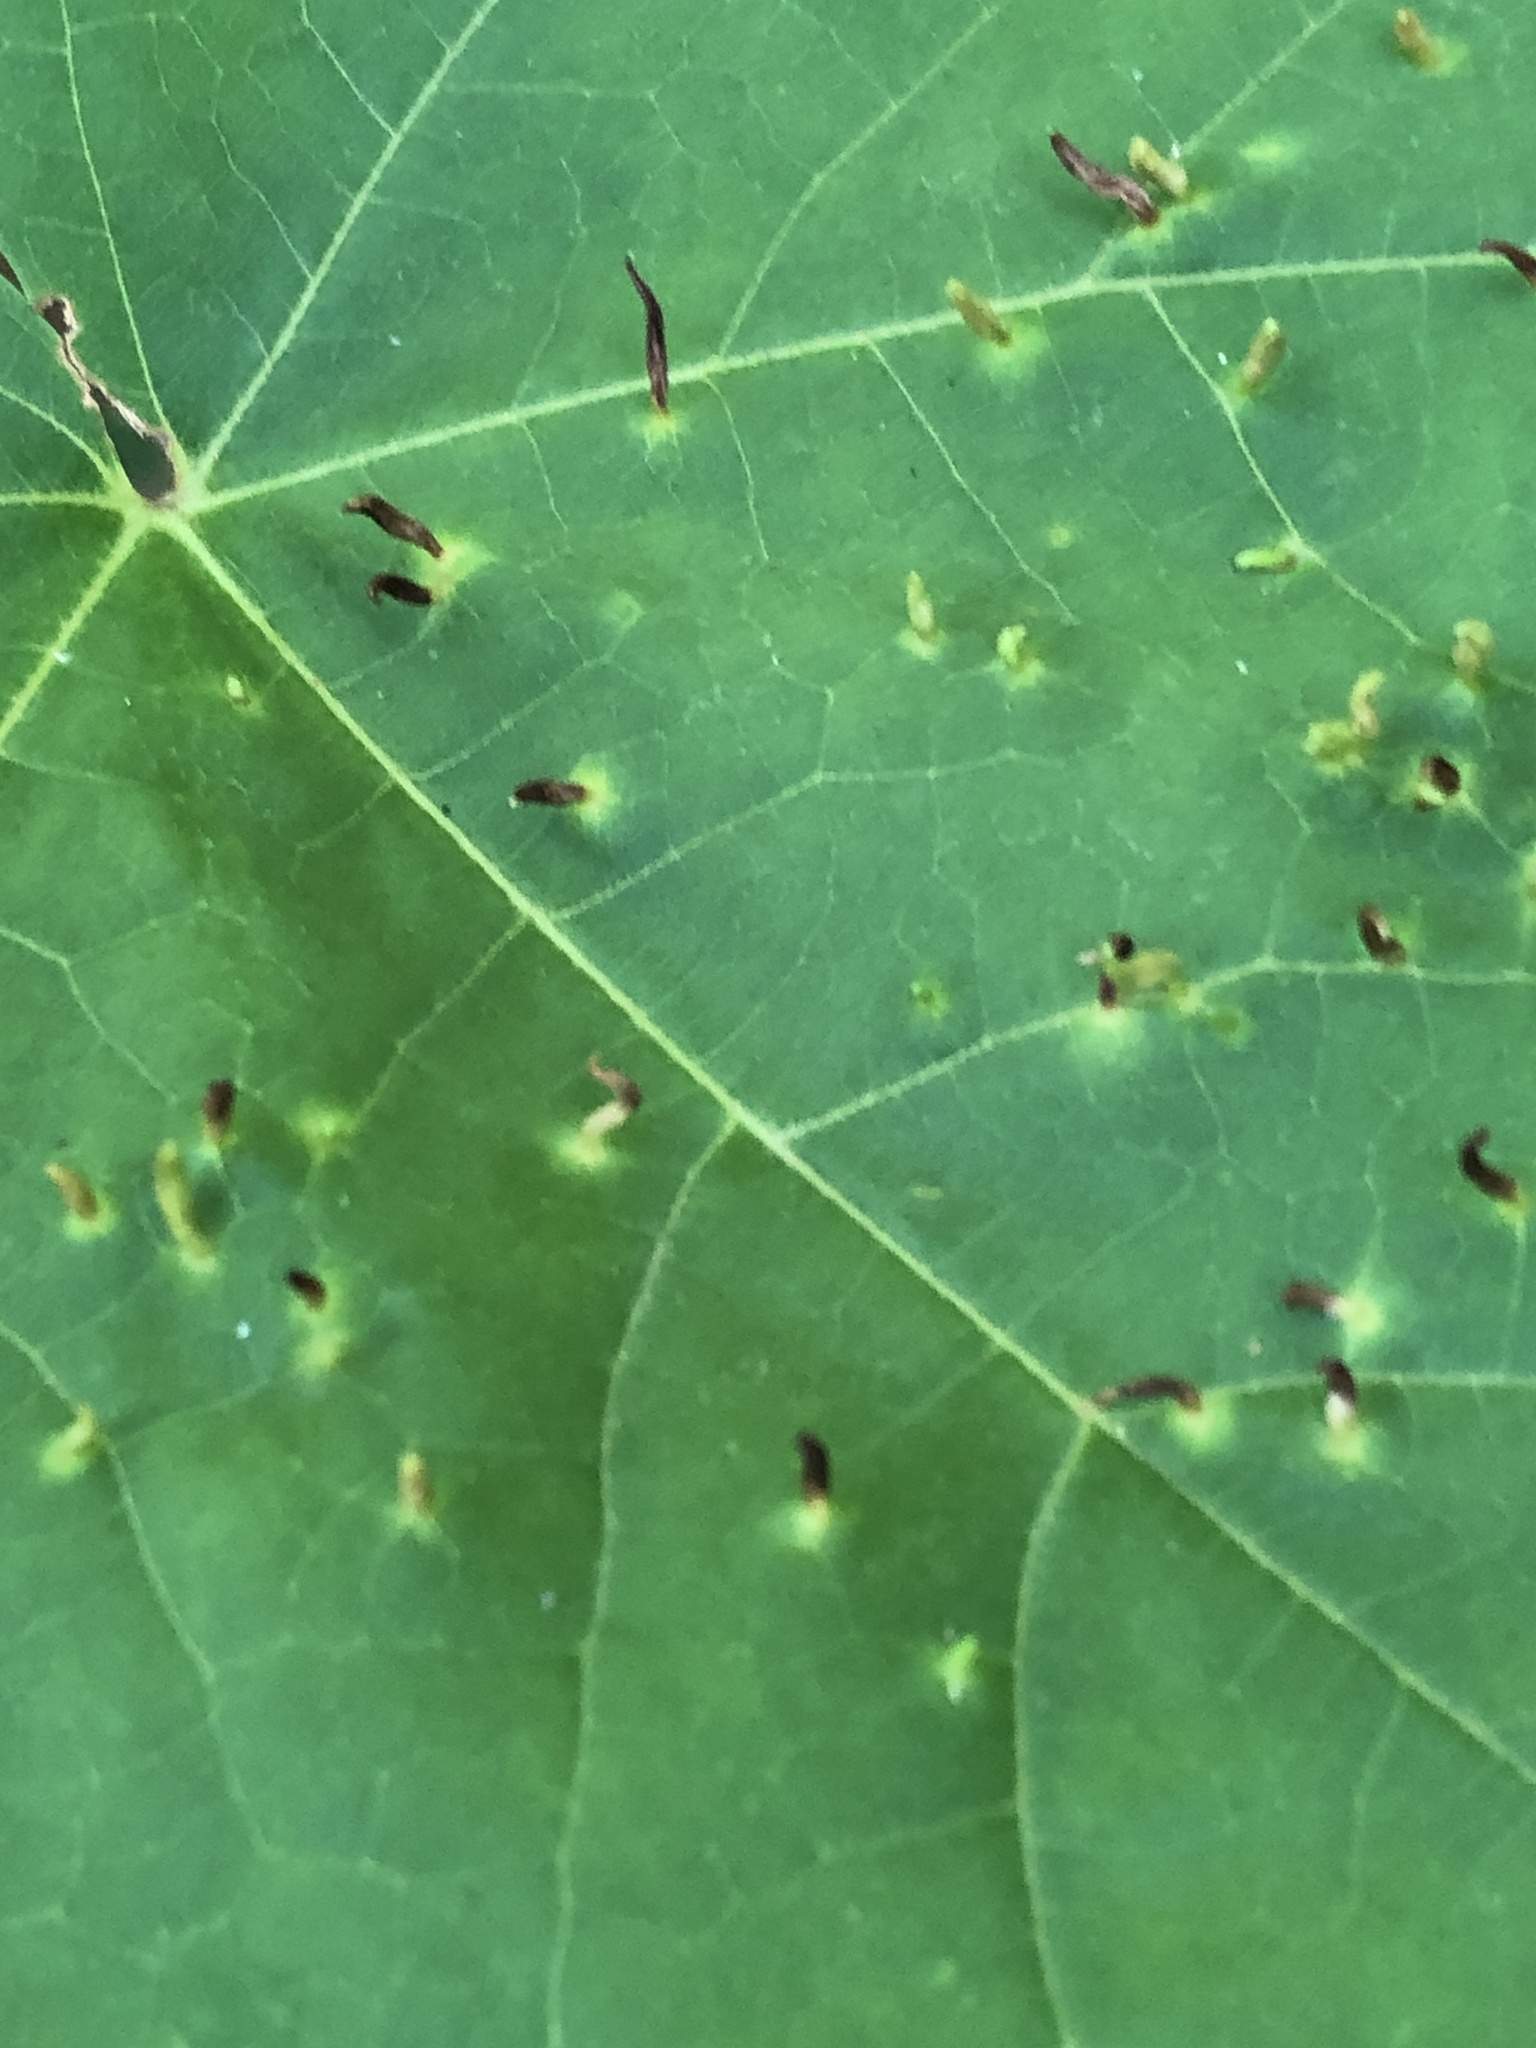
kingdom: Animalia
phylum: Arthropoda
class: Arachnida
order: Trombidiformes
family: Eriophyidae
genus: Vasates
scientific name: Vasates aceriscrumena
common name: Maple spindle gall mite
